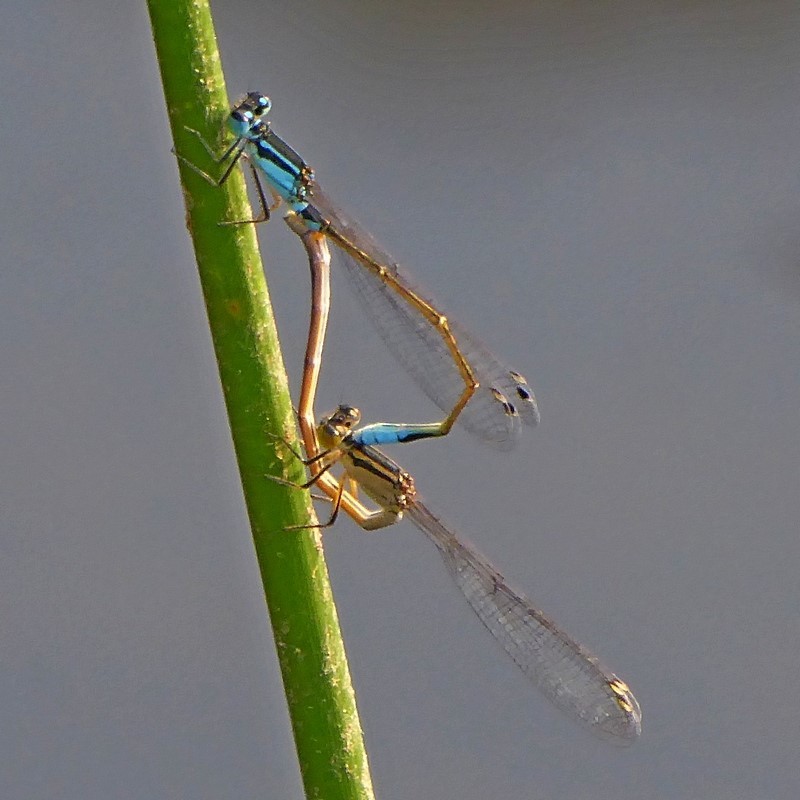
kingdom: Animalia
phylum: Arthropoda
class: Insecta
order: Odonata
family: Coenagrionidae
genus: Ischnura
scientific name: Ischnura heterosticta
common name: Common bluetail
